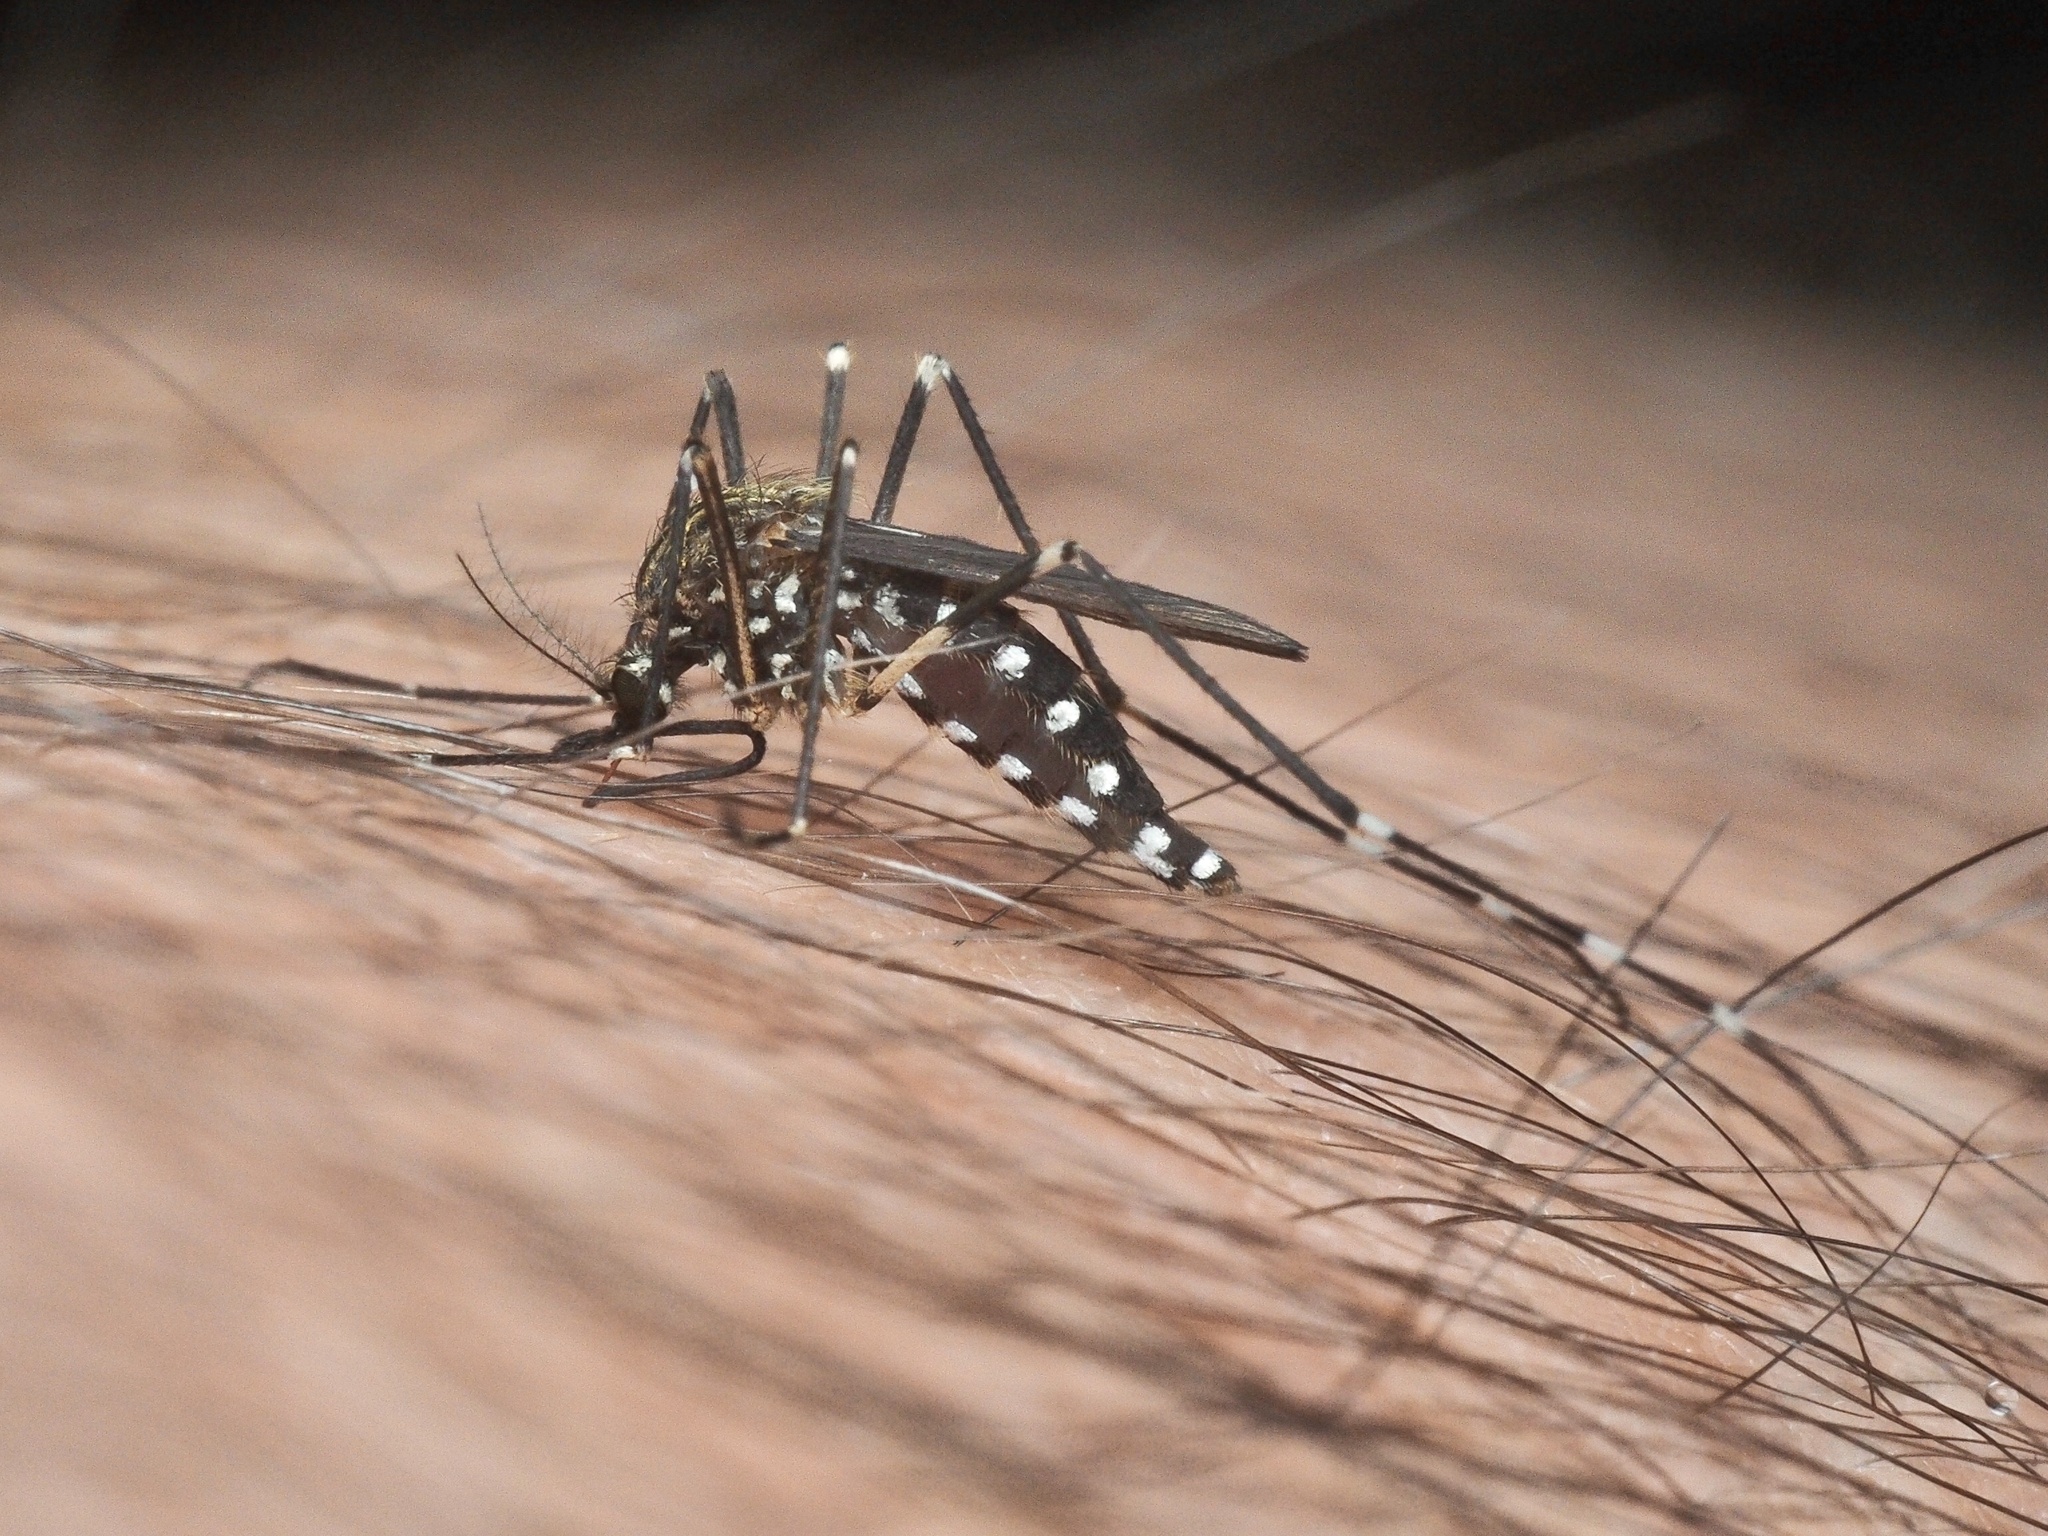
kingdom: Animalia
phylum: Arthropoda
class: Insecta
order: Diptera
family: Culicidae
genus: Aedes
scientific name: Aedes japonicus
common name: Asian bush mosquito
